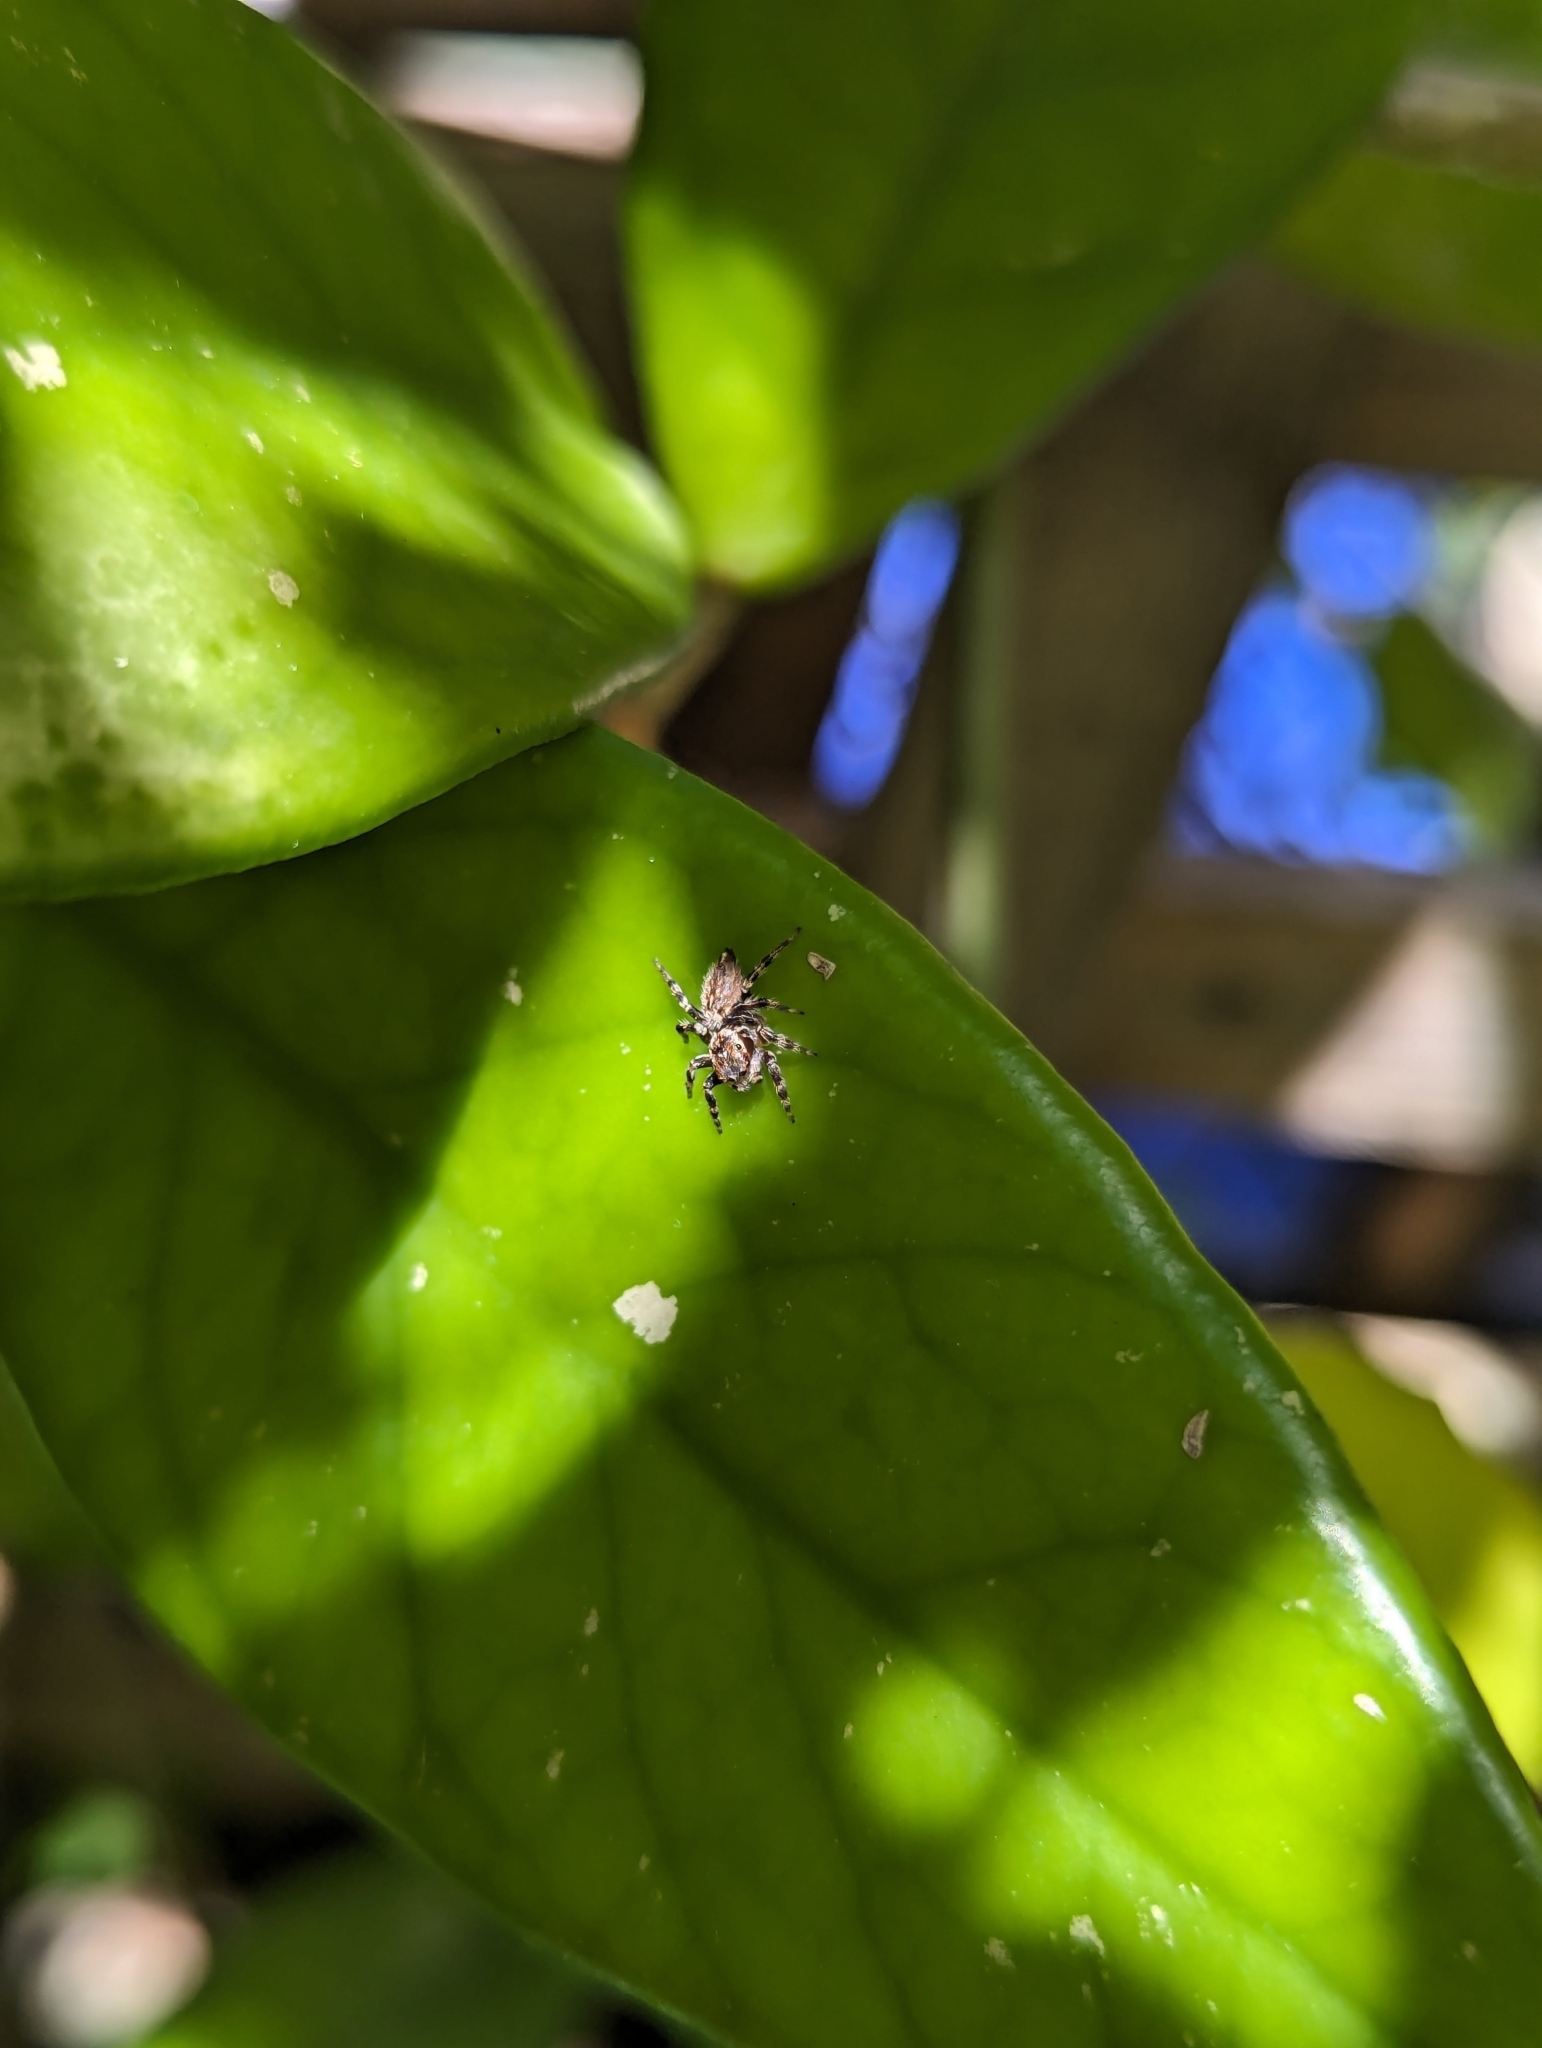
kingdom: Animalia
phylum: Arthropoda
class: Arachnida
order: Araneae
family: Salticidae
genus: Maratus
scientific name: Maratus griseus
